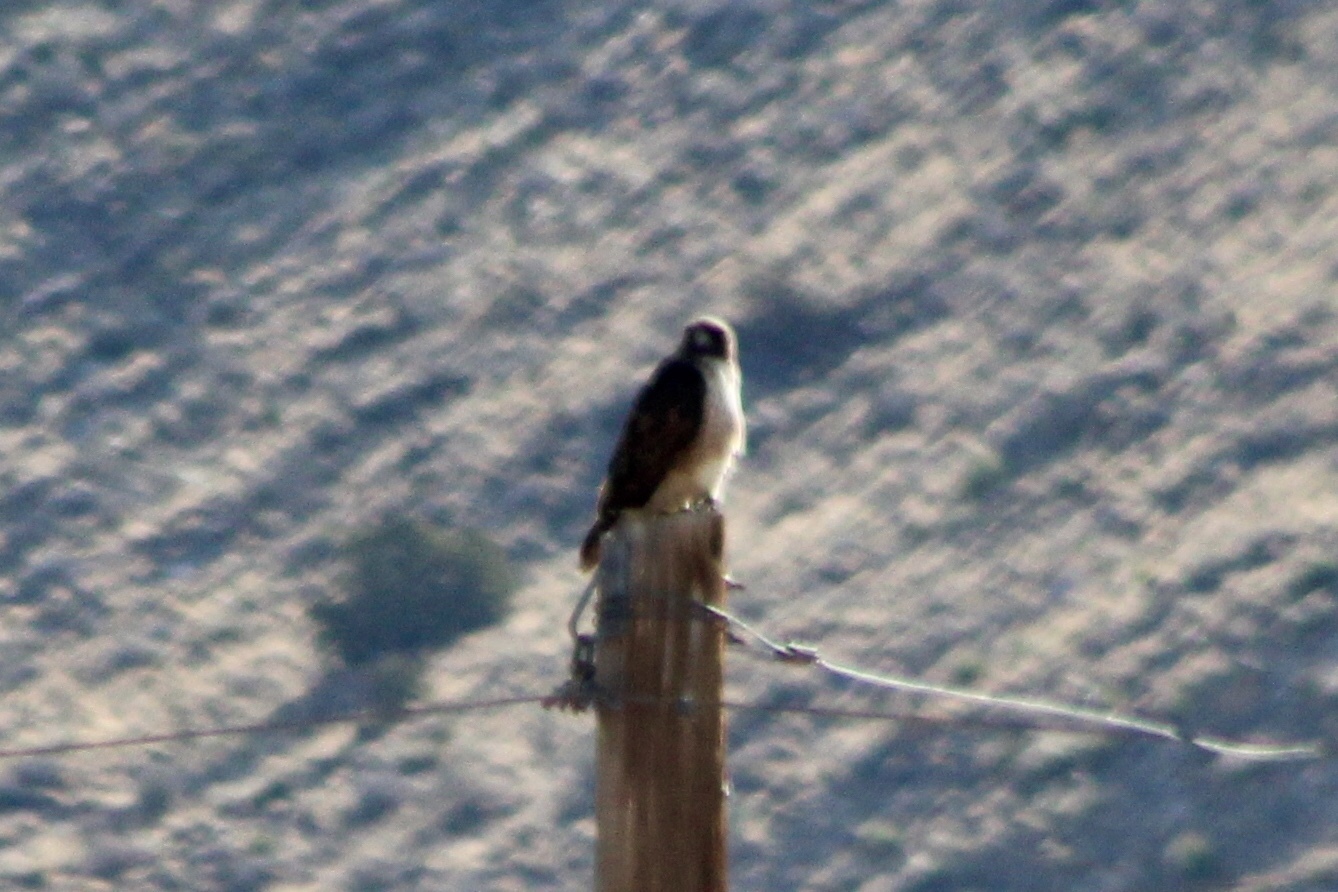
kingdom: Animalia
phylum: Chordata
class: Aves
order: Accipitriformes
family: Accipitridae
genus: Buteo
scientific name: Buteo jamaicensis
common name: Red-tailed hawk
